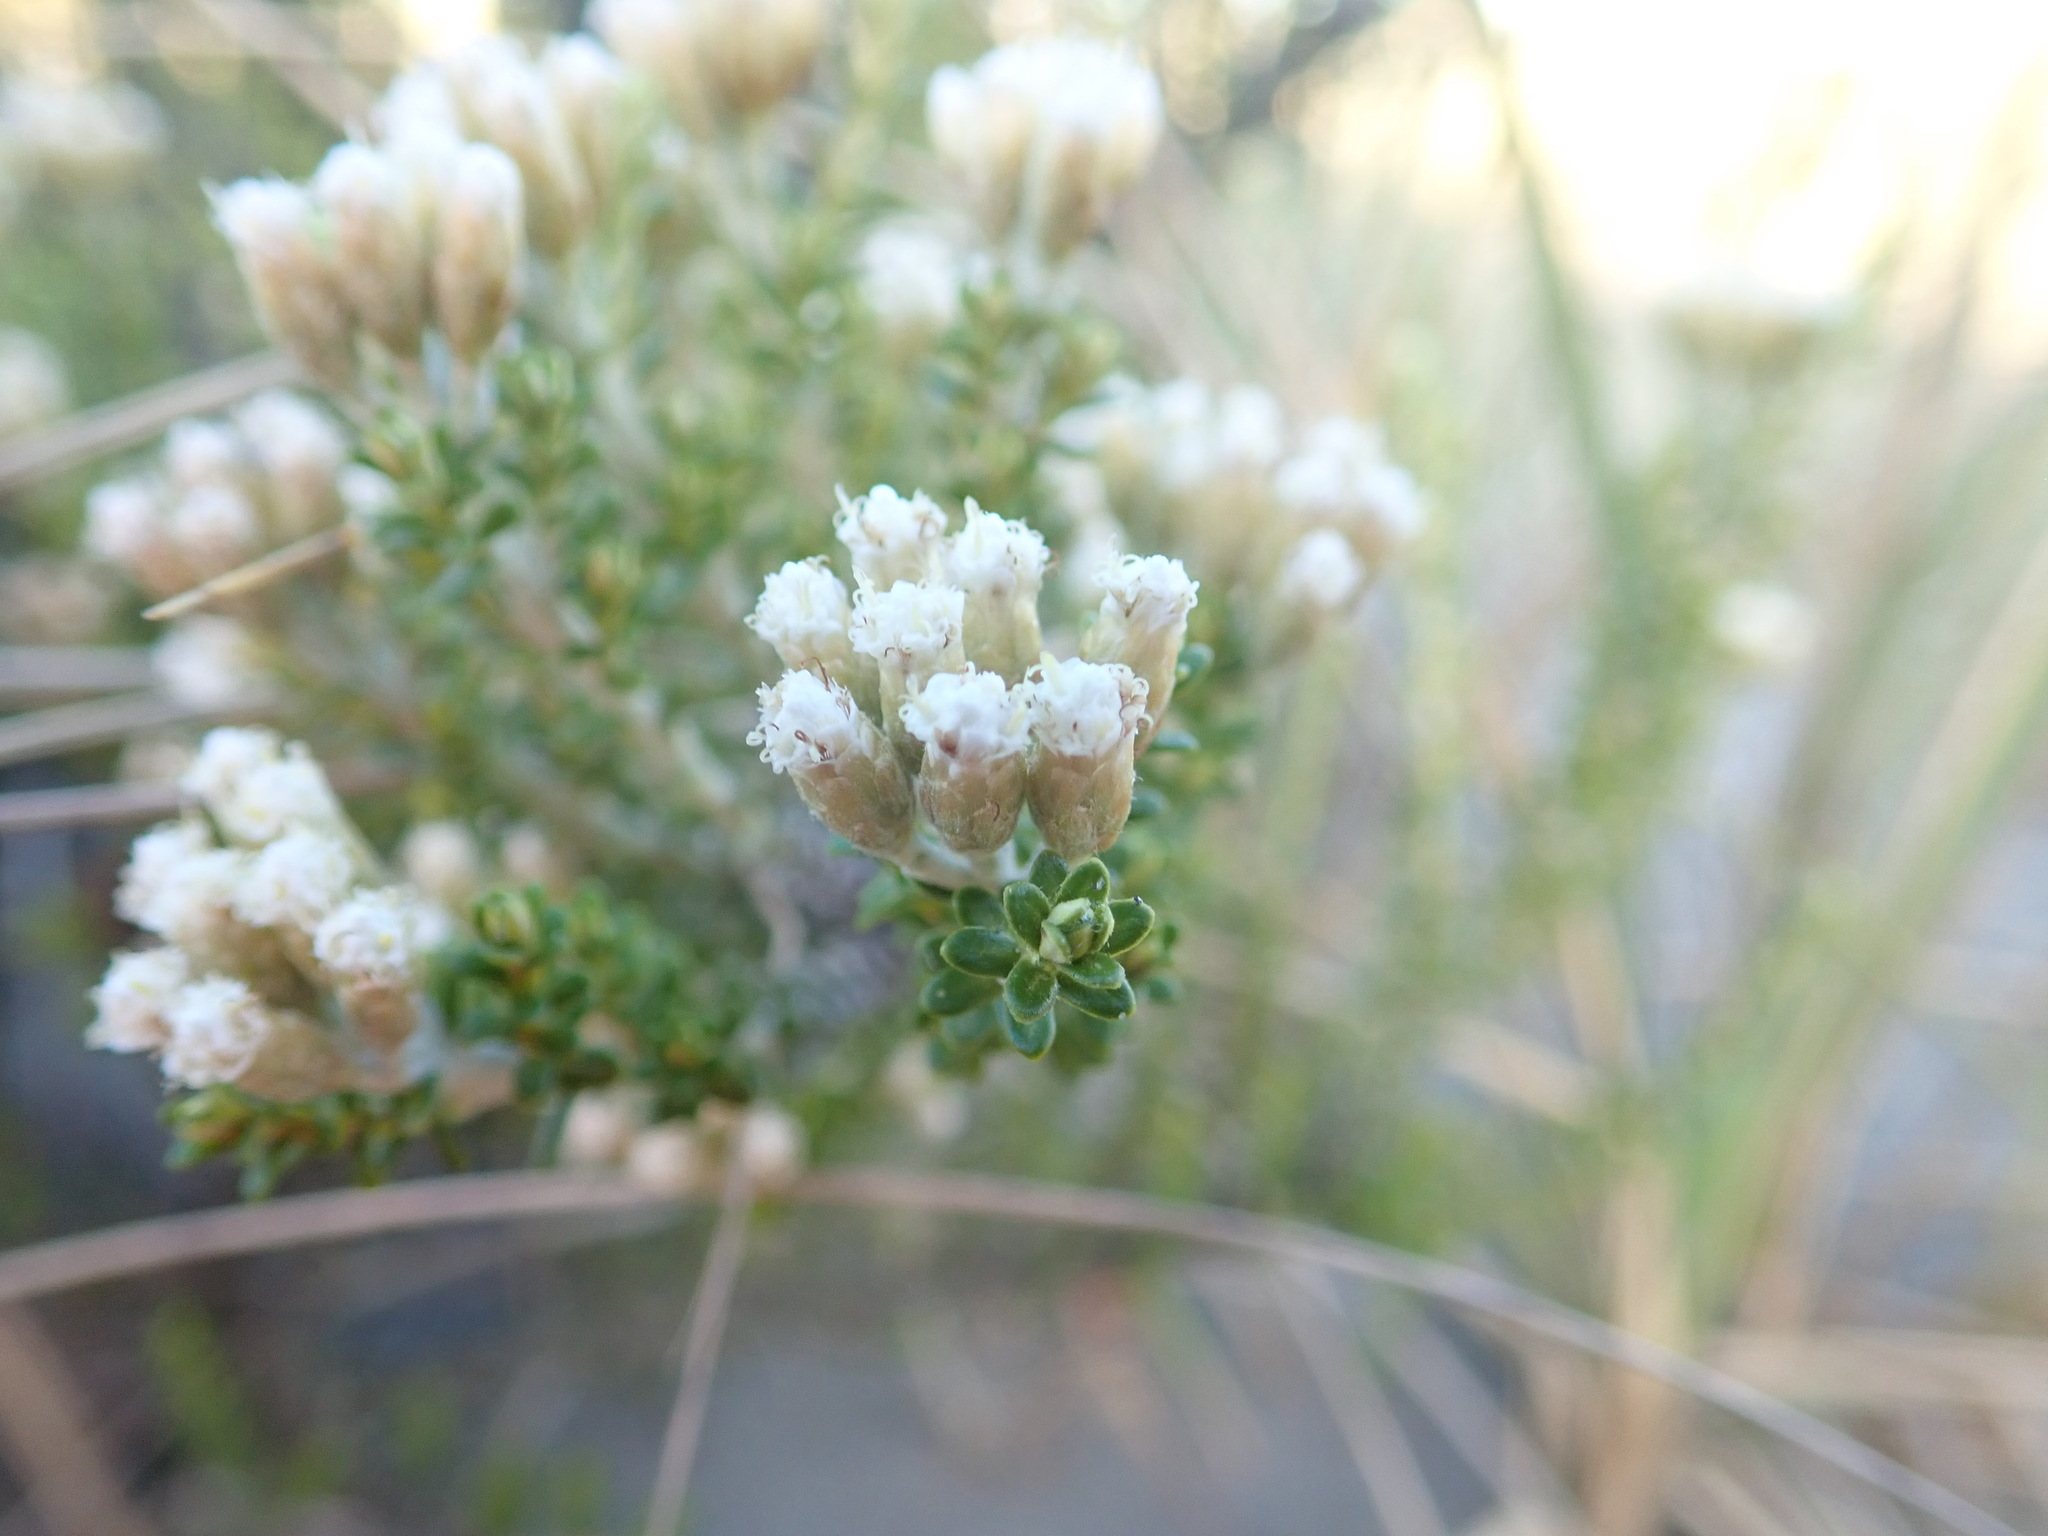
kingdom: Plantae
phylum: Tracheophyta
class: Magnoliopsida
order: Asterales
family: Asteraceae
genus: Ozothamnus
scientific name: Ozothamnus leptophyllus
